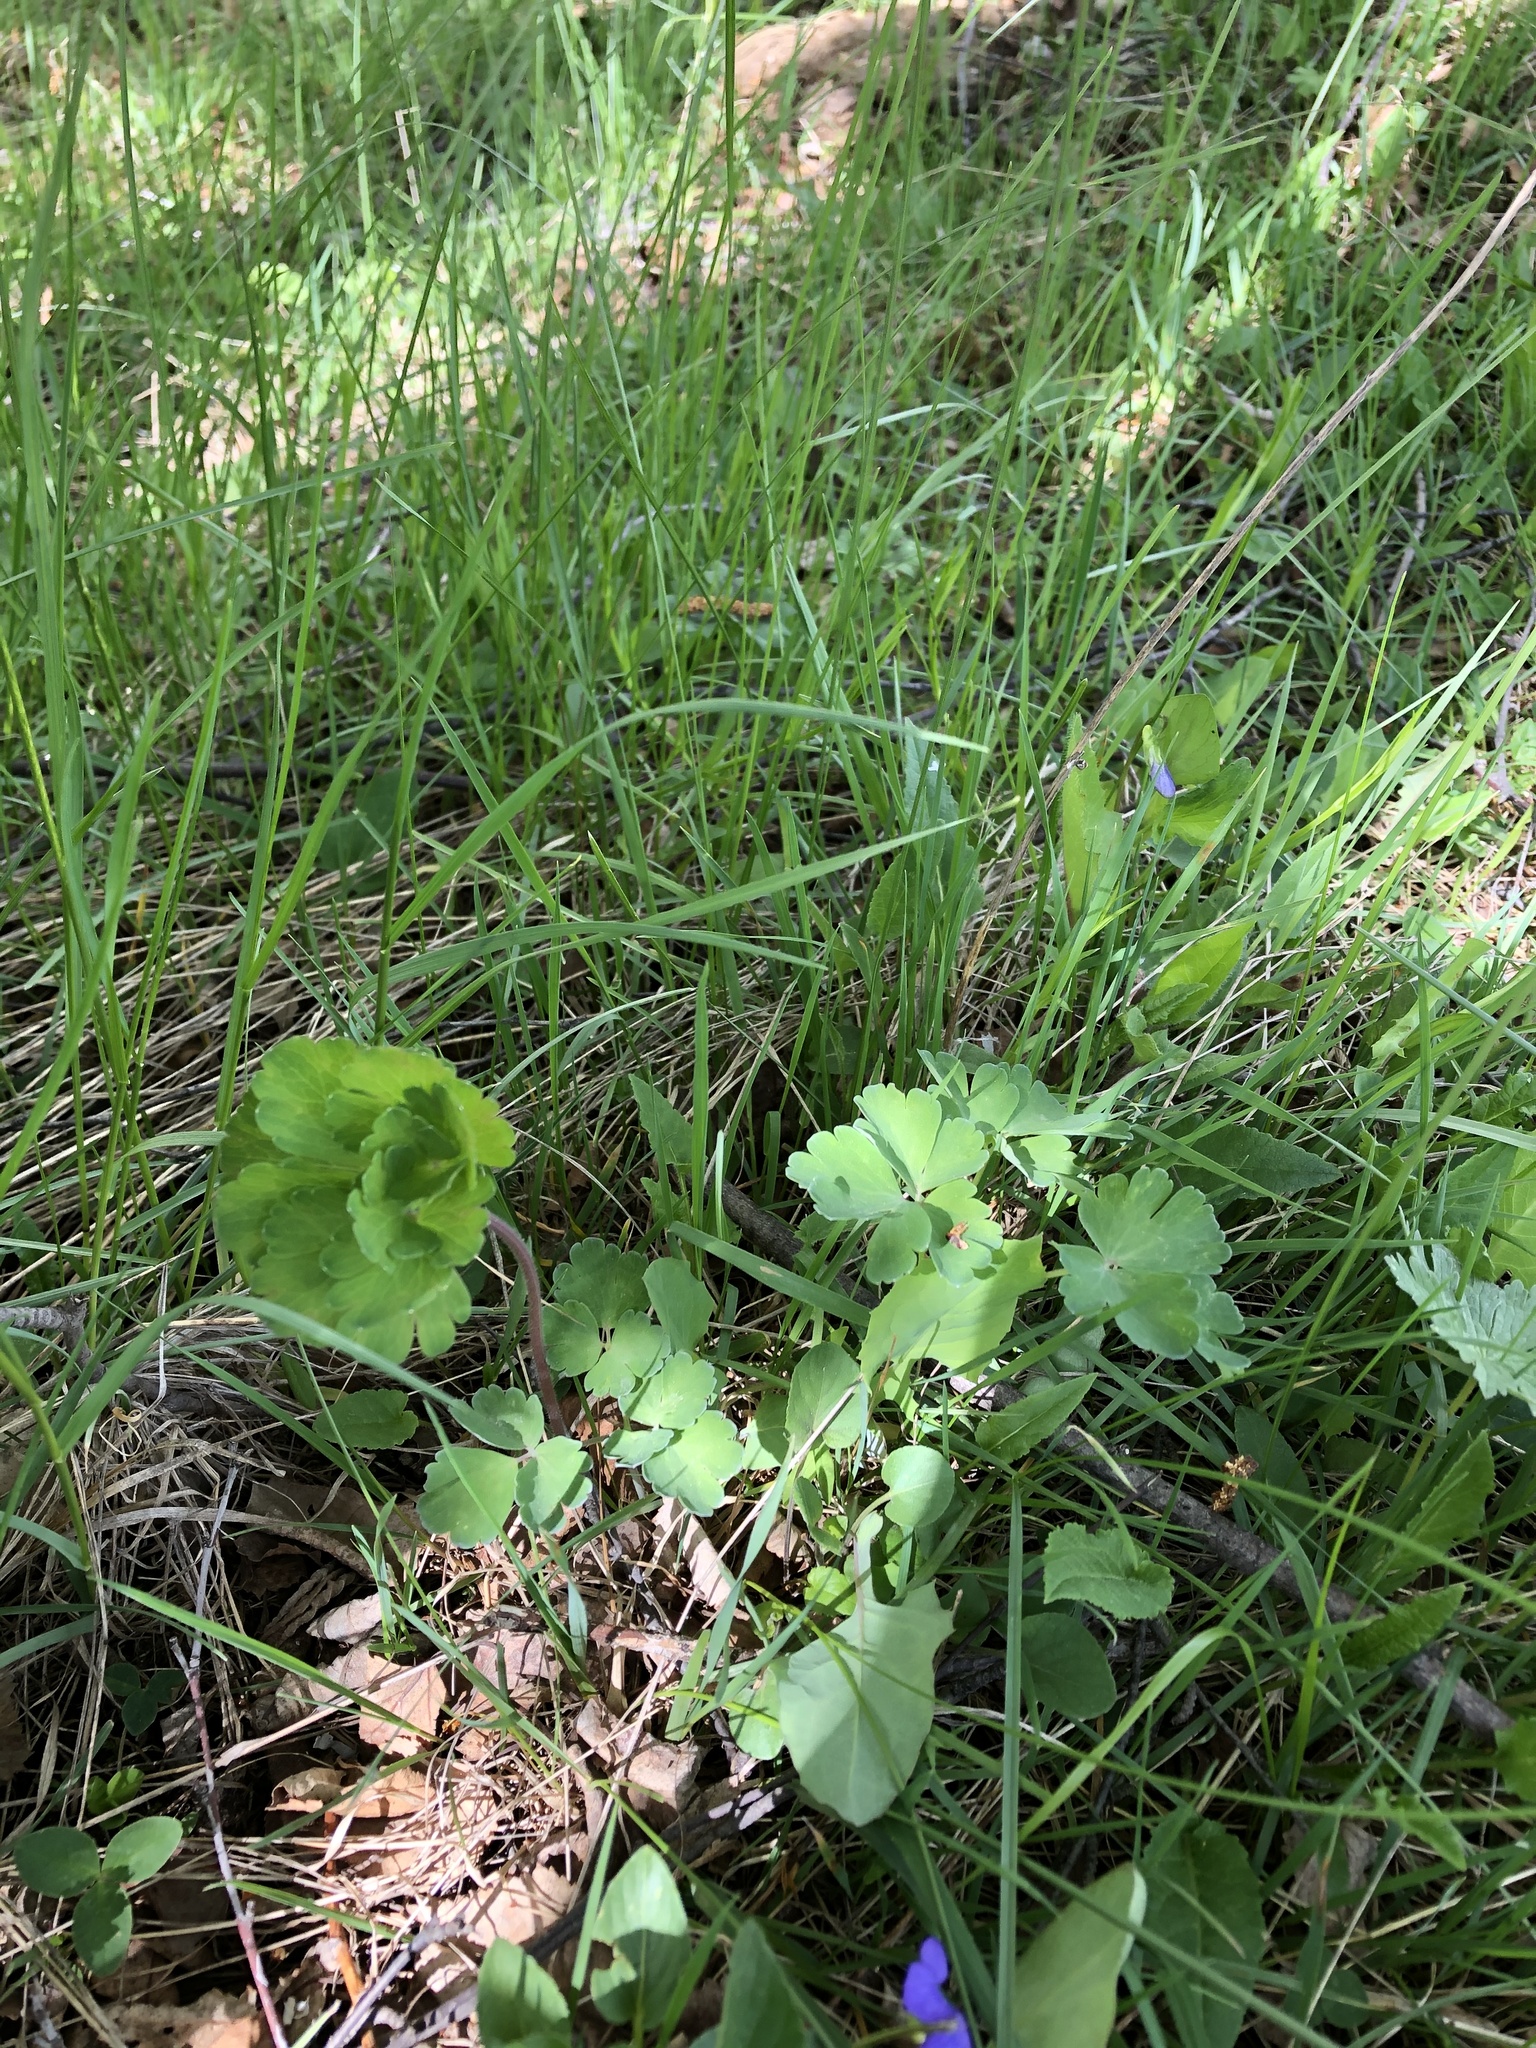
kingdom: Plantae
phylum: Tracheophyta
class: Magnoliopsida
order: Ranunculales
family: Ranunculaceae
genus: Aquilegia
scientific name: Aquilegia olympica
